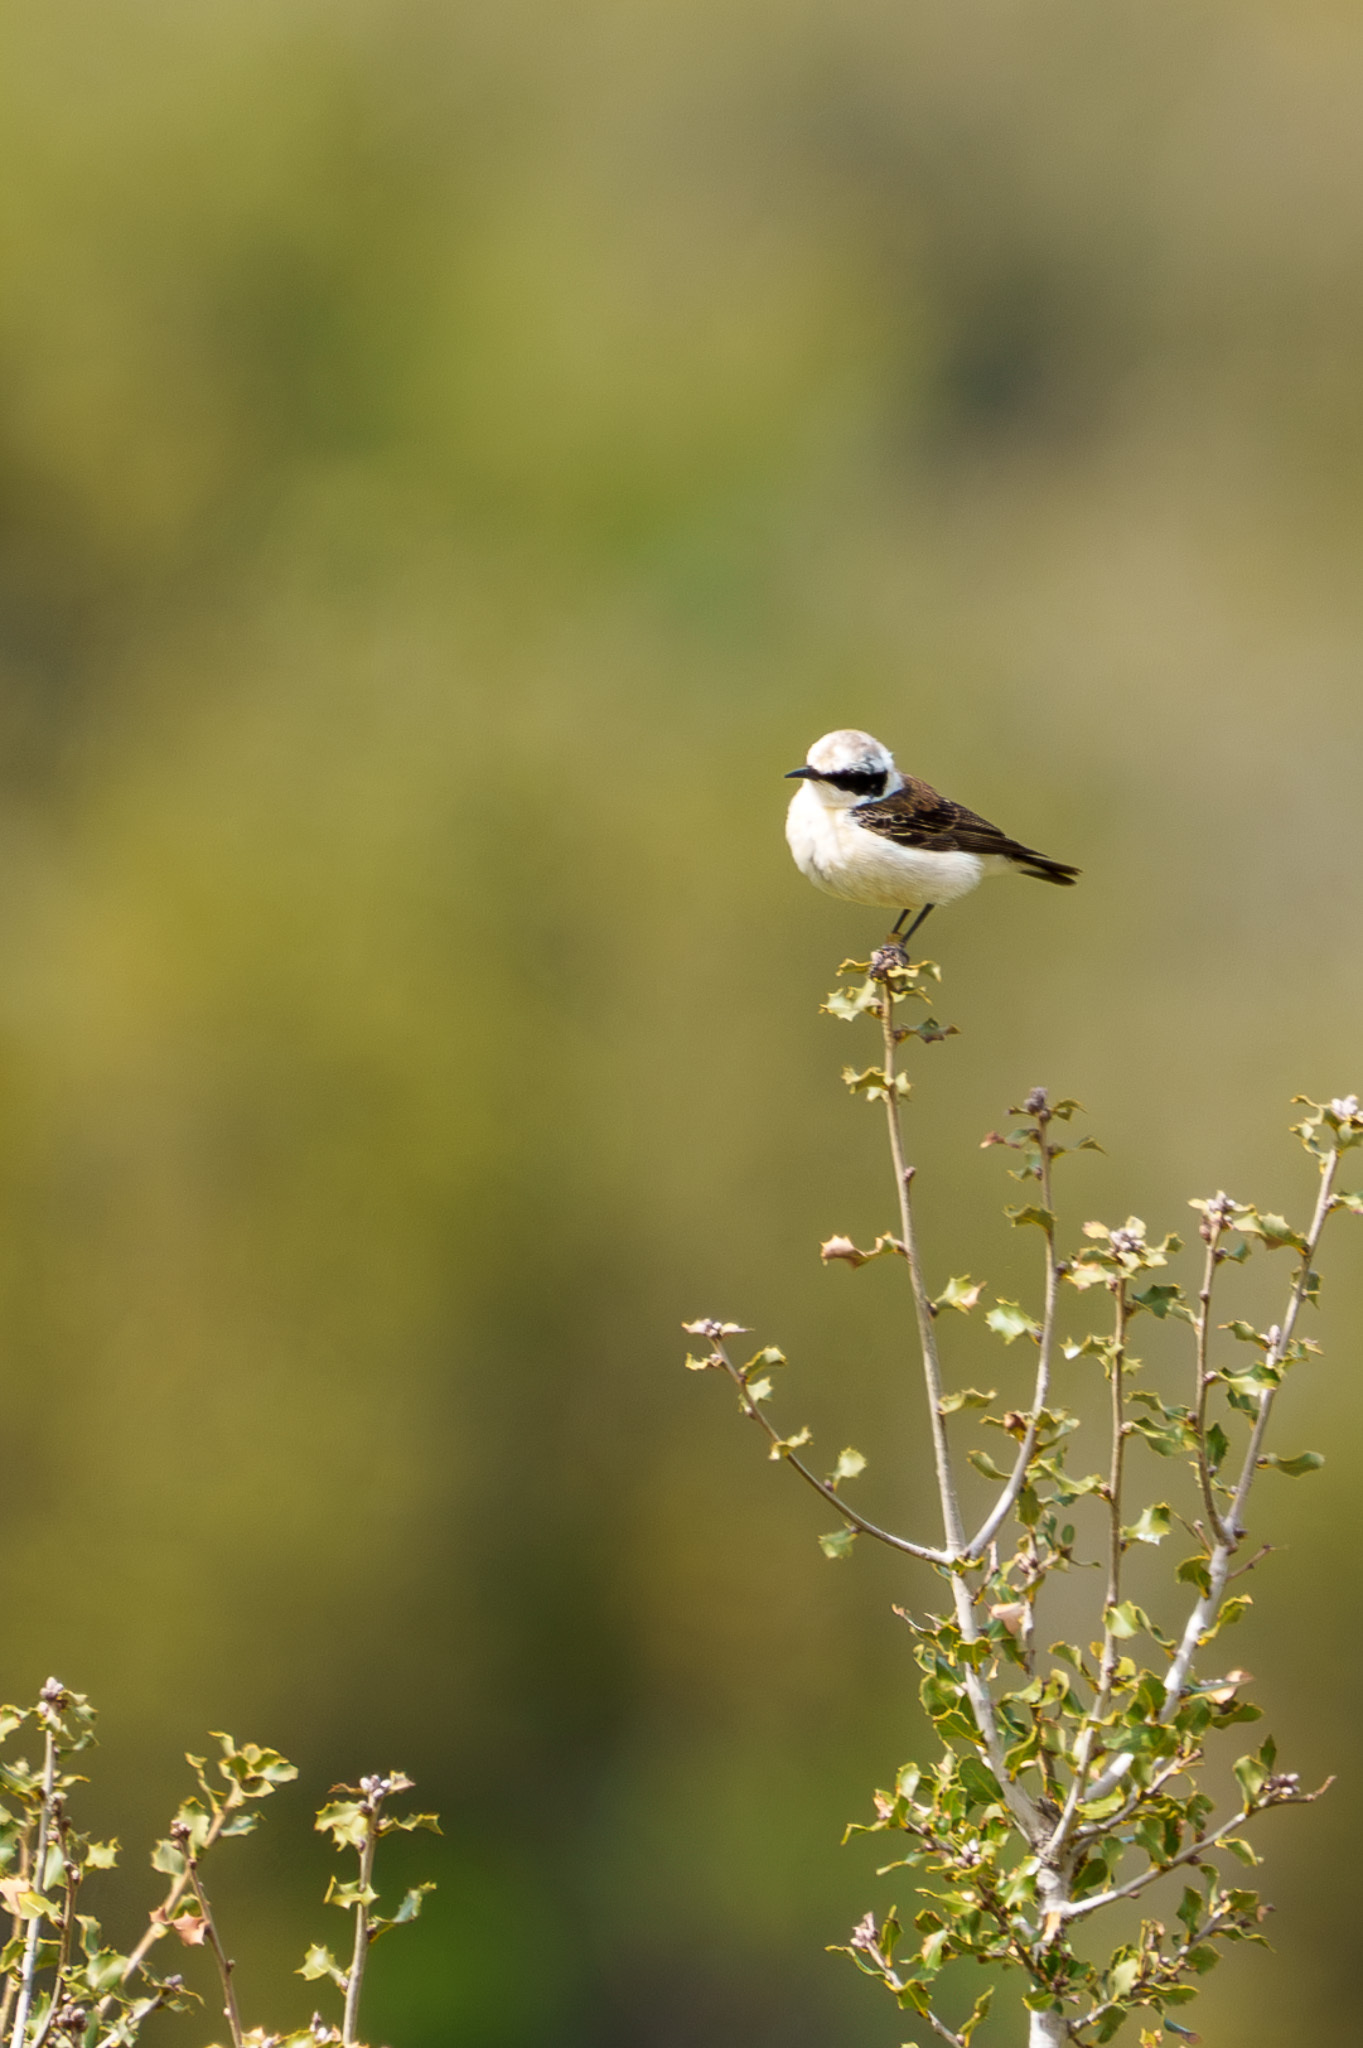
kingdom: Animalia
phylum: Chordata
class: Aves
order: Passeriformes
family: Muscicapidae
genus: Oenanthe
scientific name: Oenanthe hispanica
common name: Black-eared wheatear
